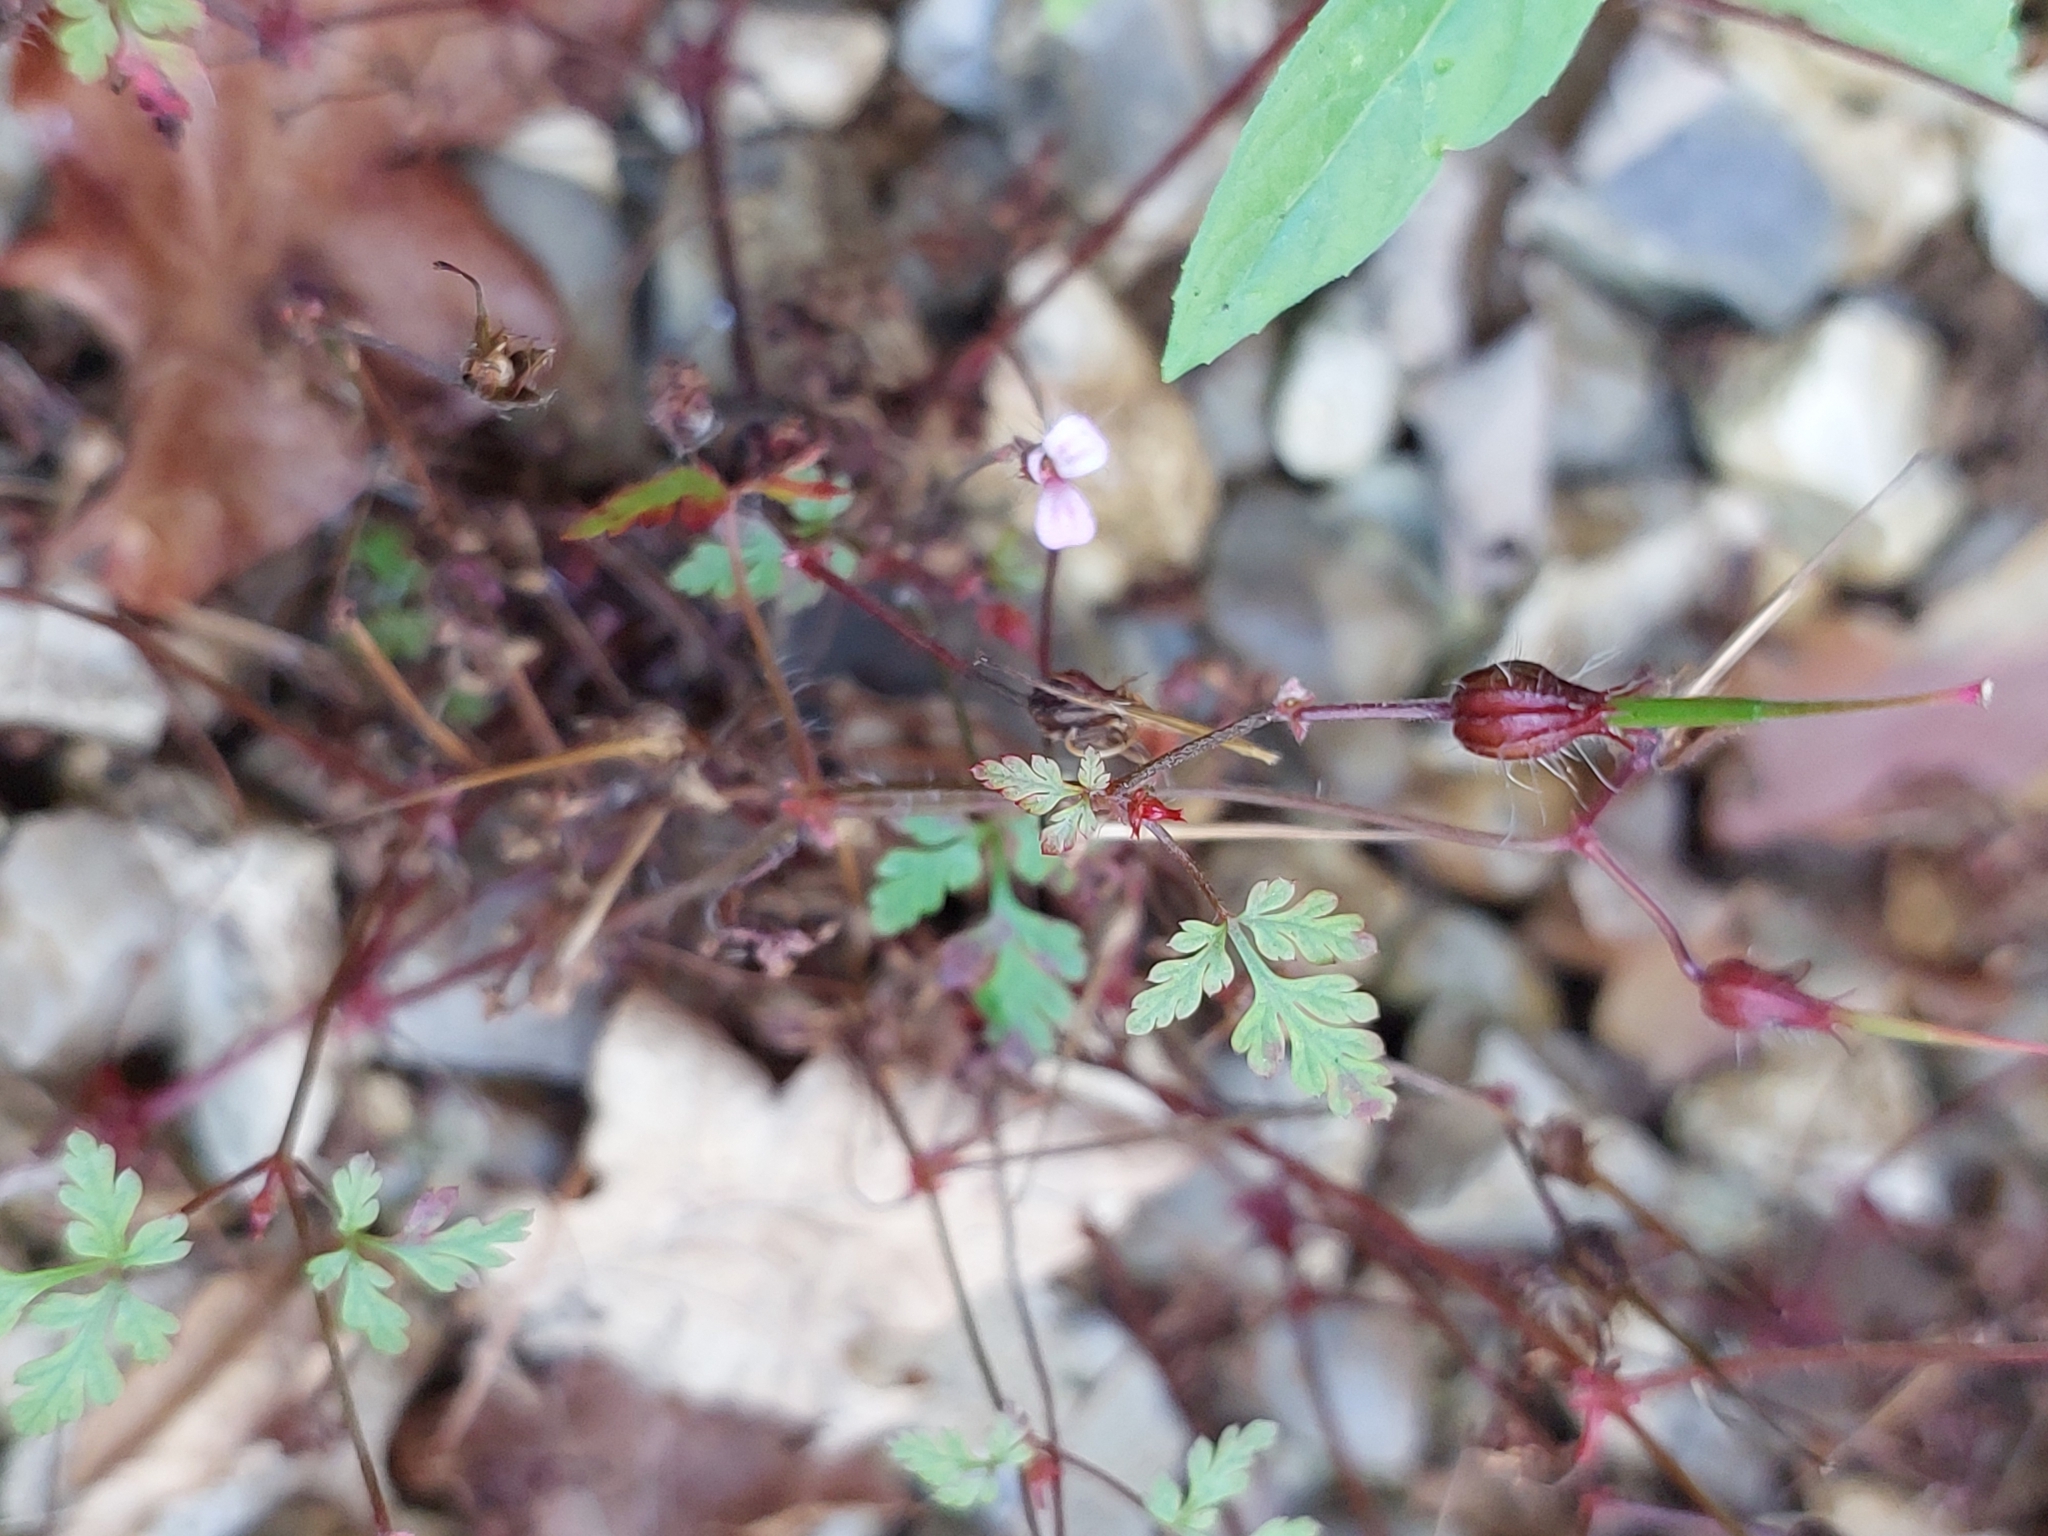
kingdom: Plantae
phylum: Tracheophyta
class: Magnoliopsida
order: Geraniales
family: Geraniaceae
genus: Geranium
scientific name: Geranium robertianum
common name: Herb-robert
